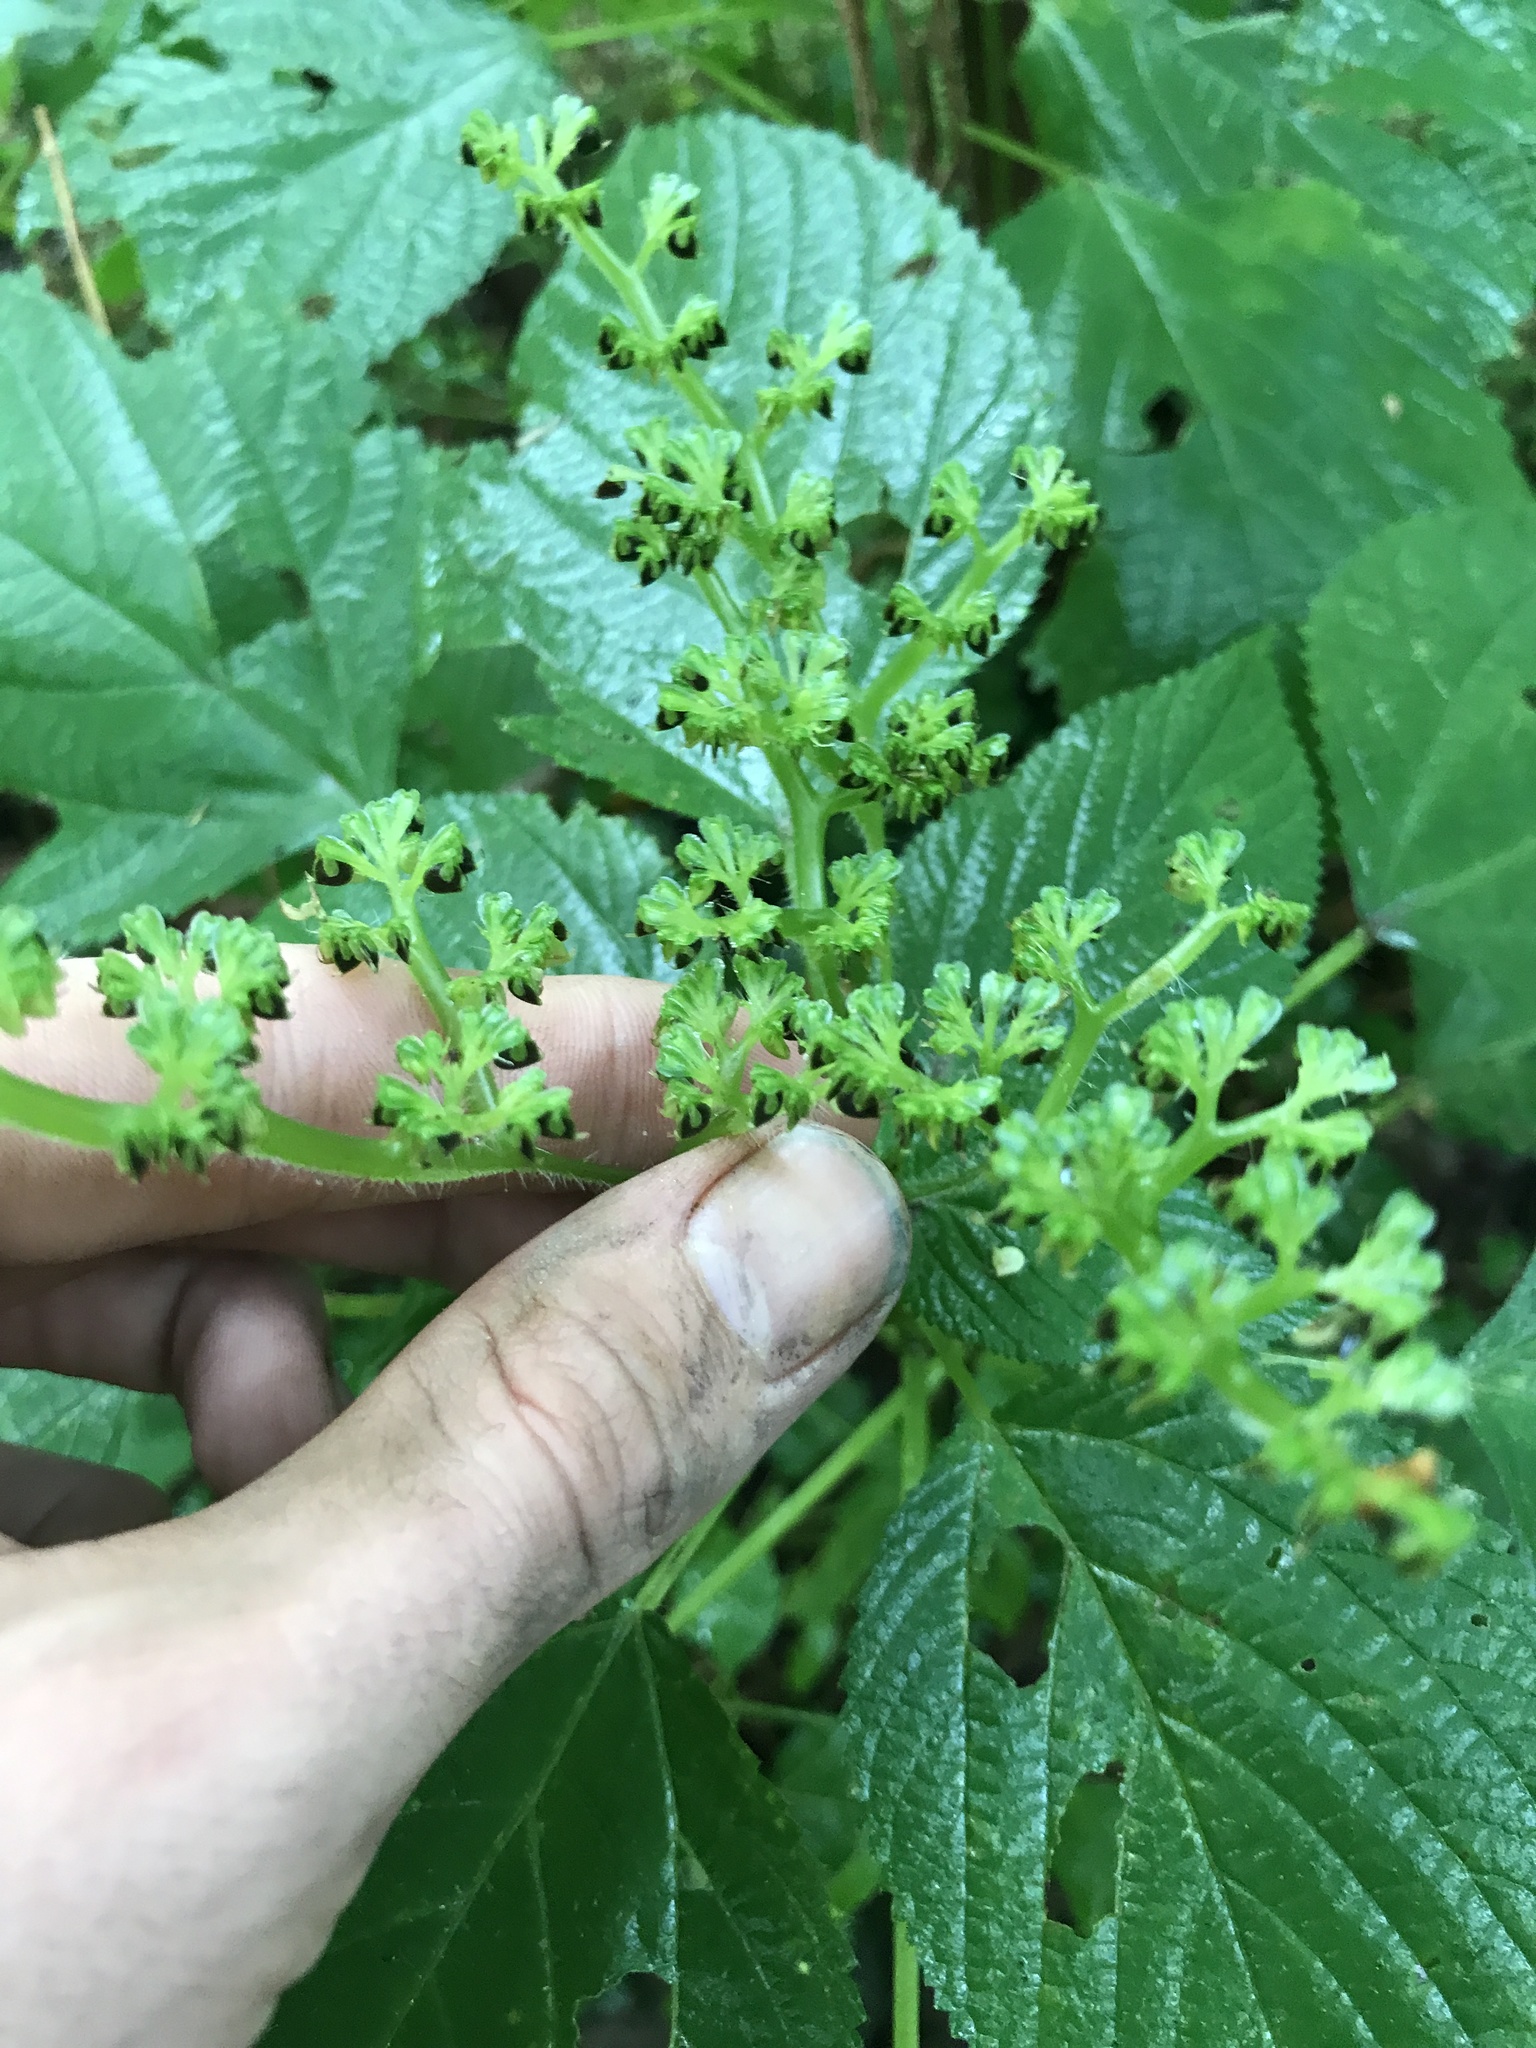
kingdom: Plantae
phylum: Tracheophyta
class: Magnoliopsida
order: Rosales
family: Urticaceae
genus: Laportea
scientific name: Laportea canadensis
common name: Canada nettle
